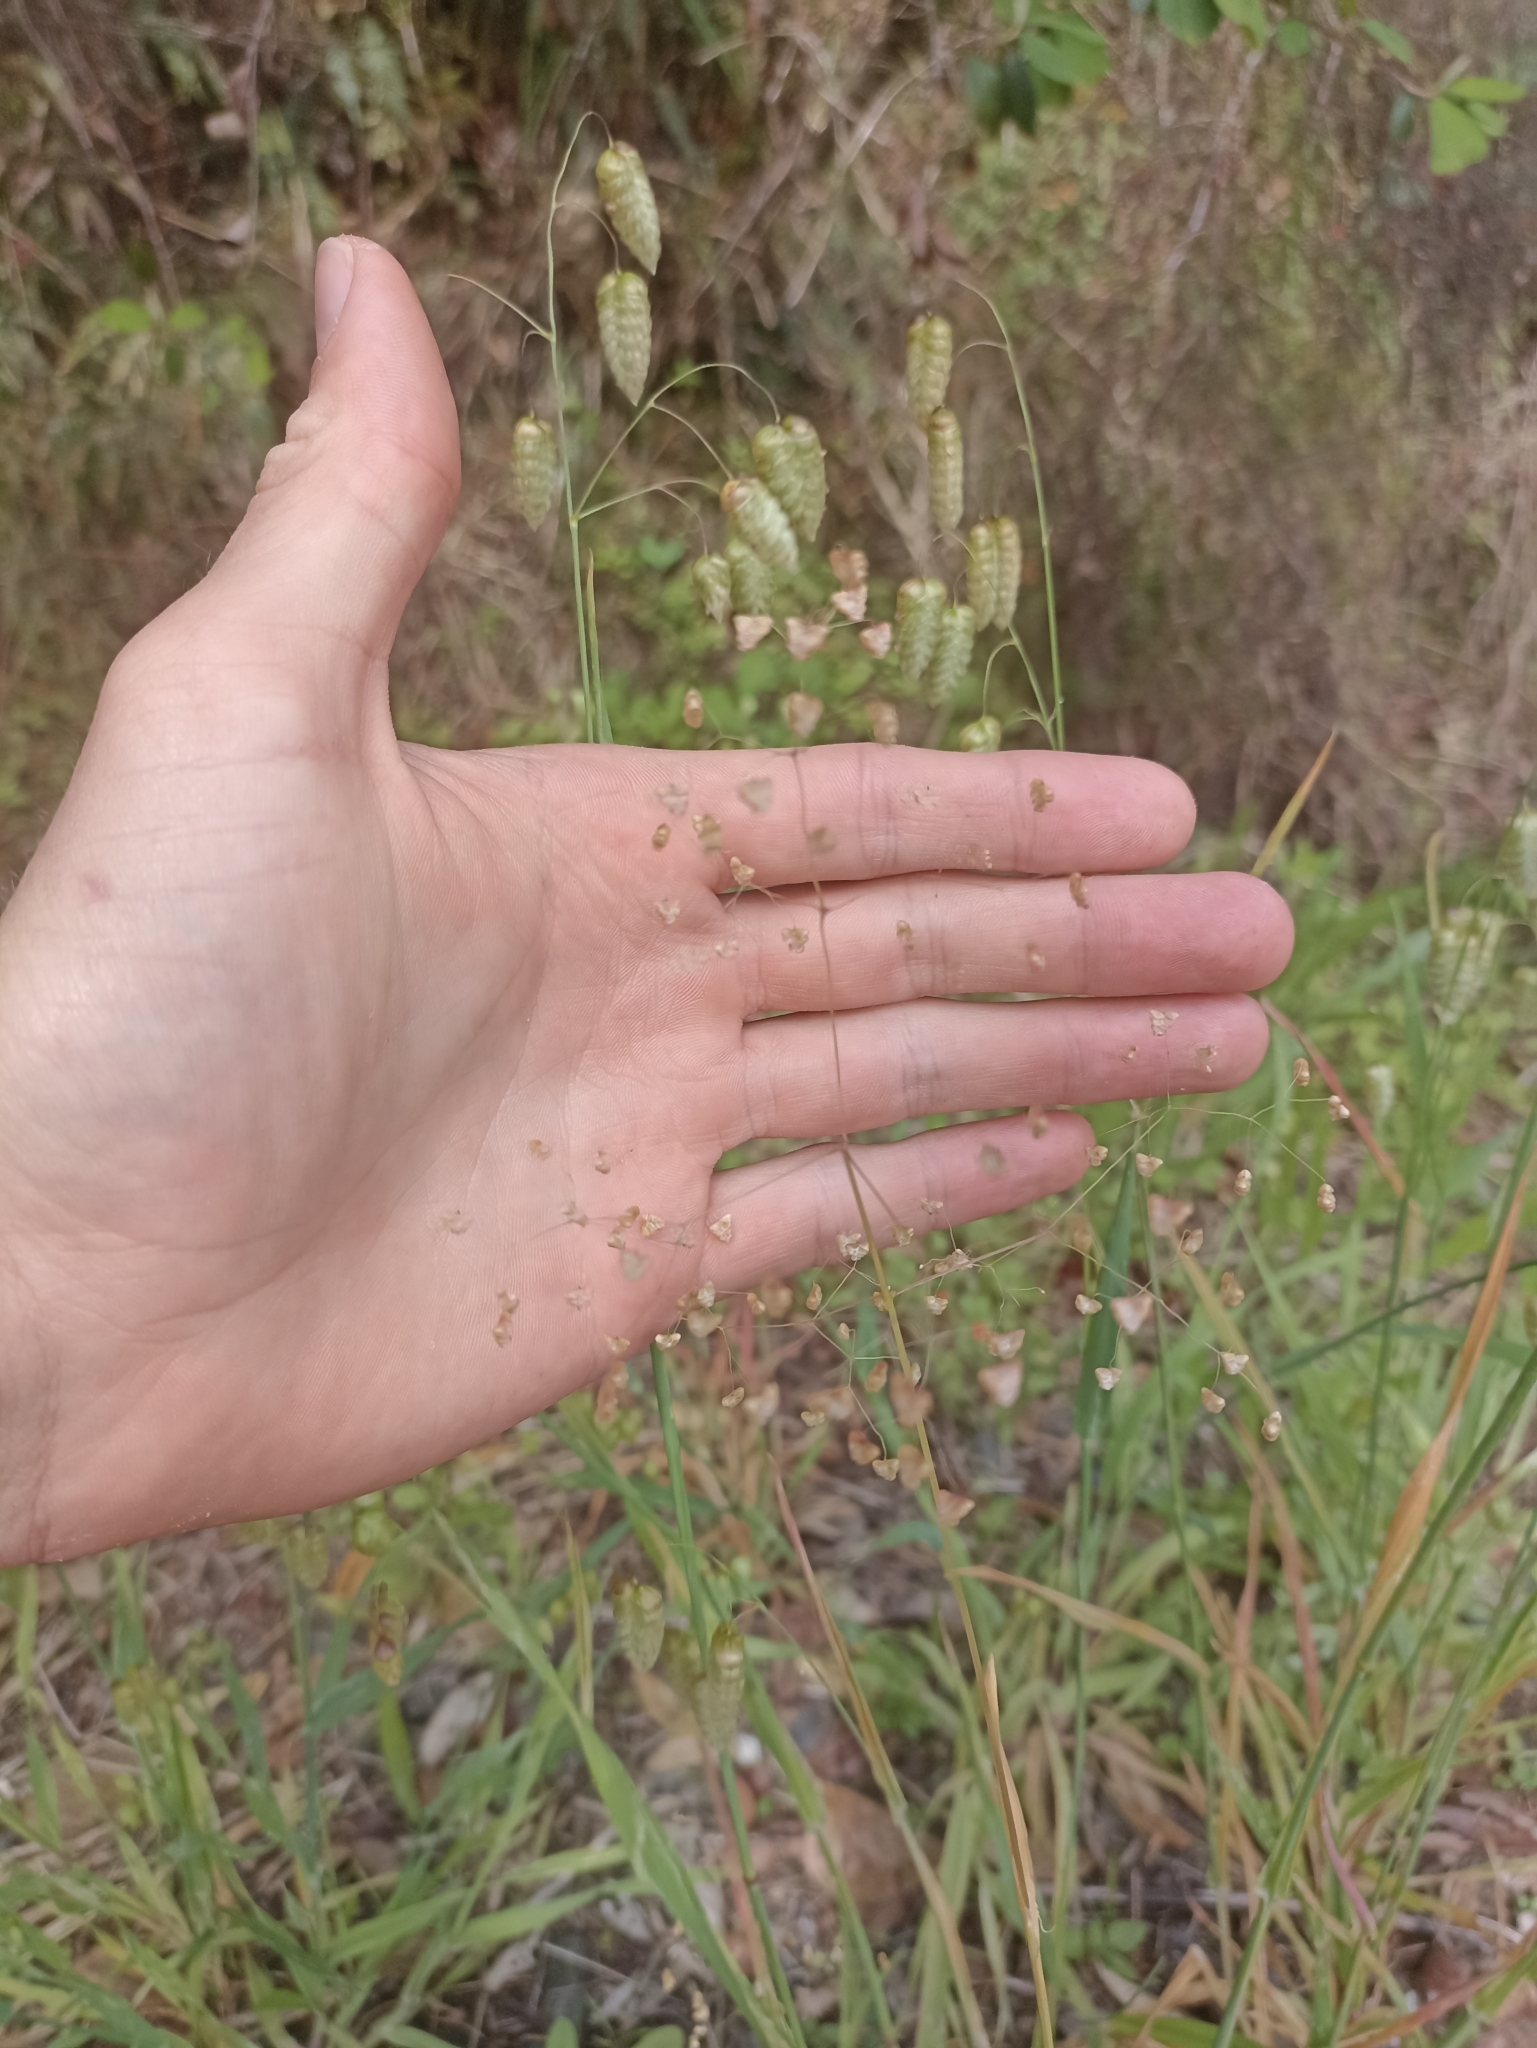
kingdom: Plantae
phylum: Tracheophyta
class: Liliopsida
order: Poales
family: Poaceae
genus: Briza
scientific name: Briza minor
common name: Lesser quaking-grass
